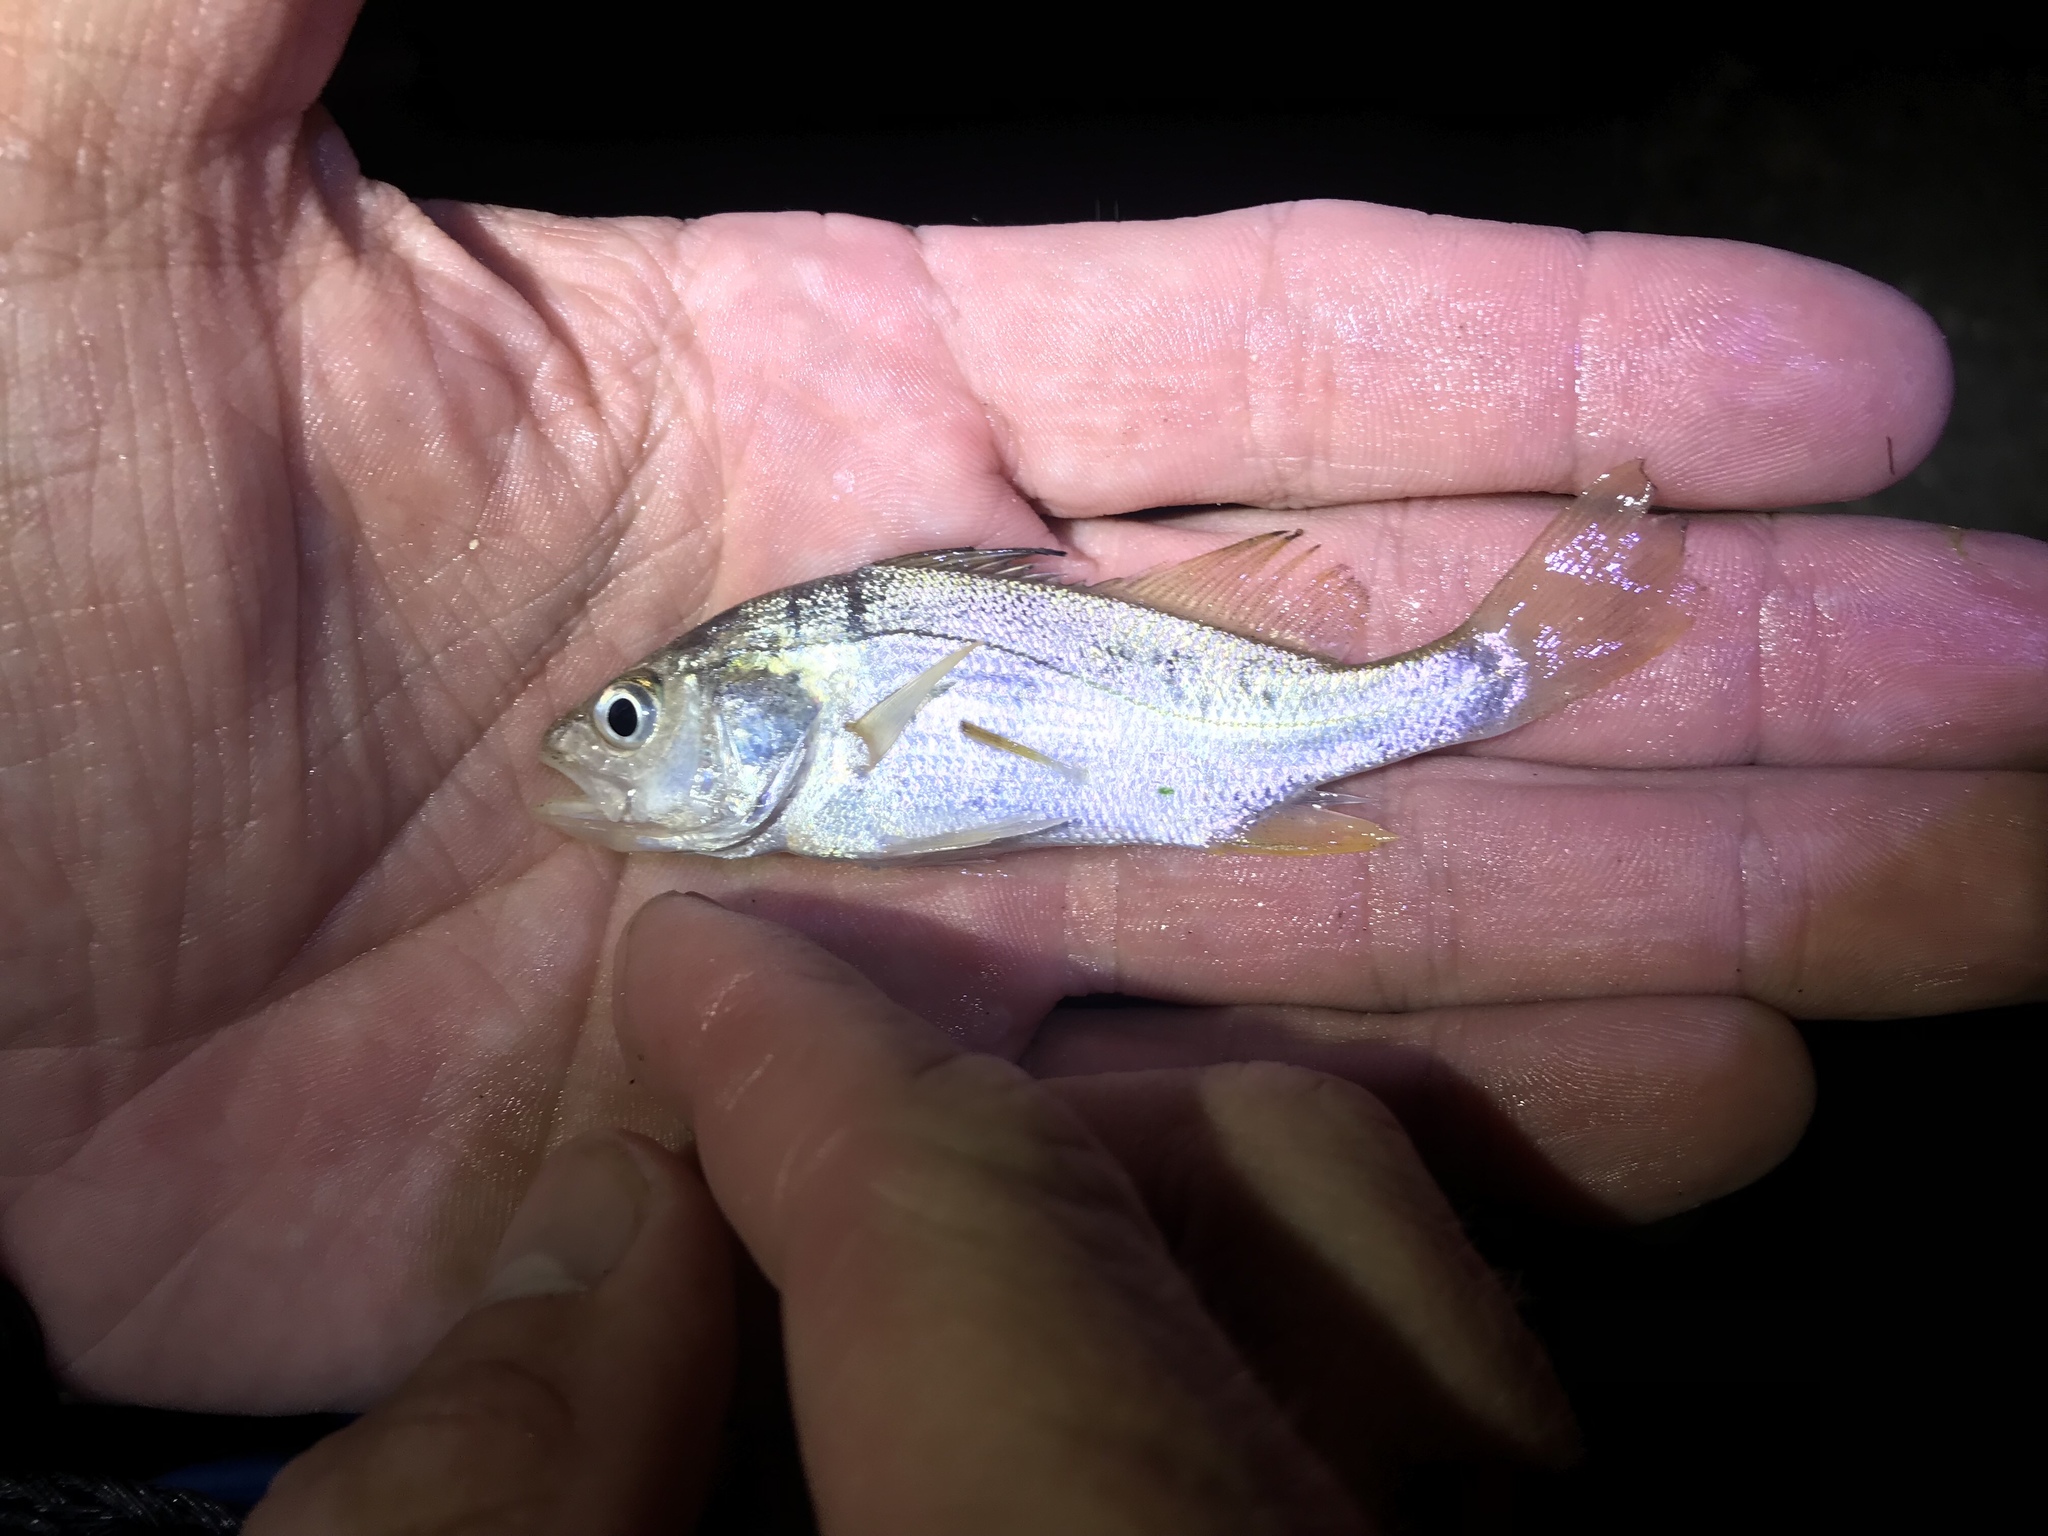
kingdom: Animalia
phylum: Chordata
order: Perciformes
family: Sciaenidae
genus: Bairdiella
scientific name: Bairdiella chrysoura
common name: Silver perch
